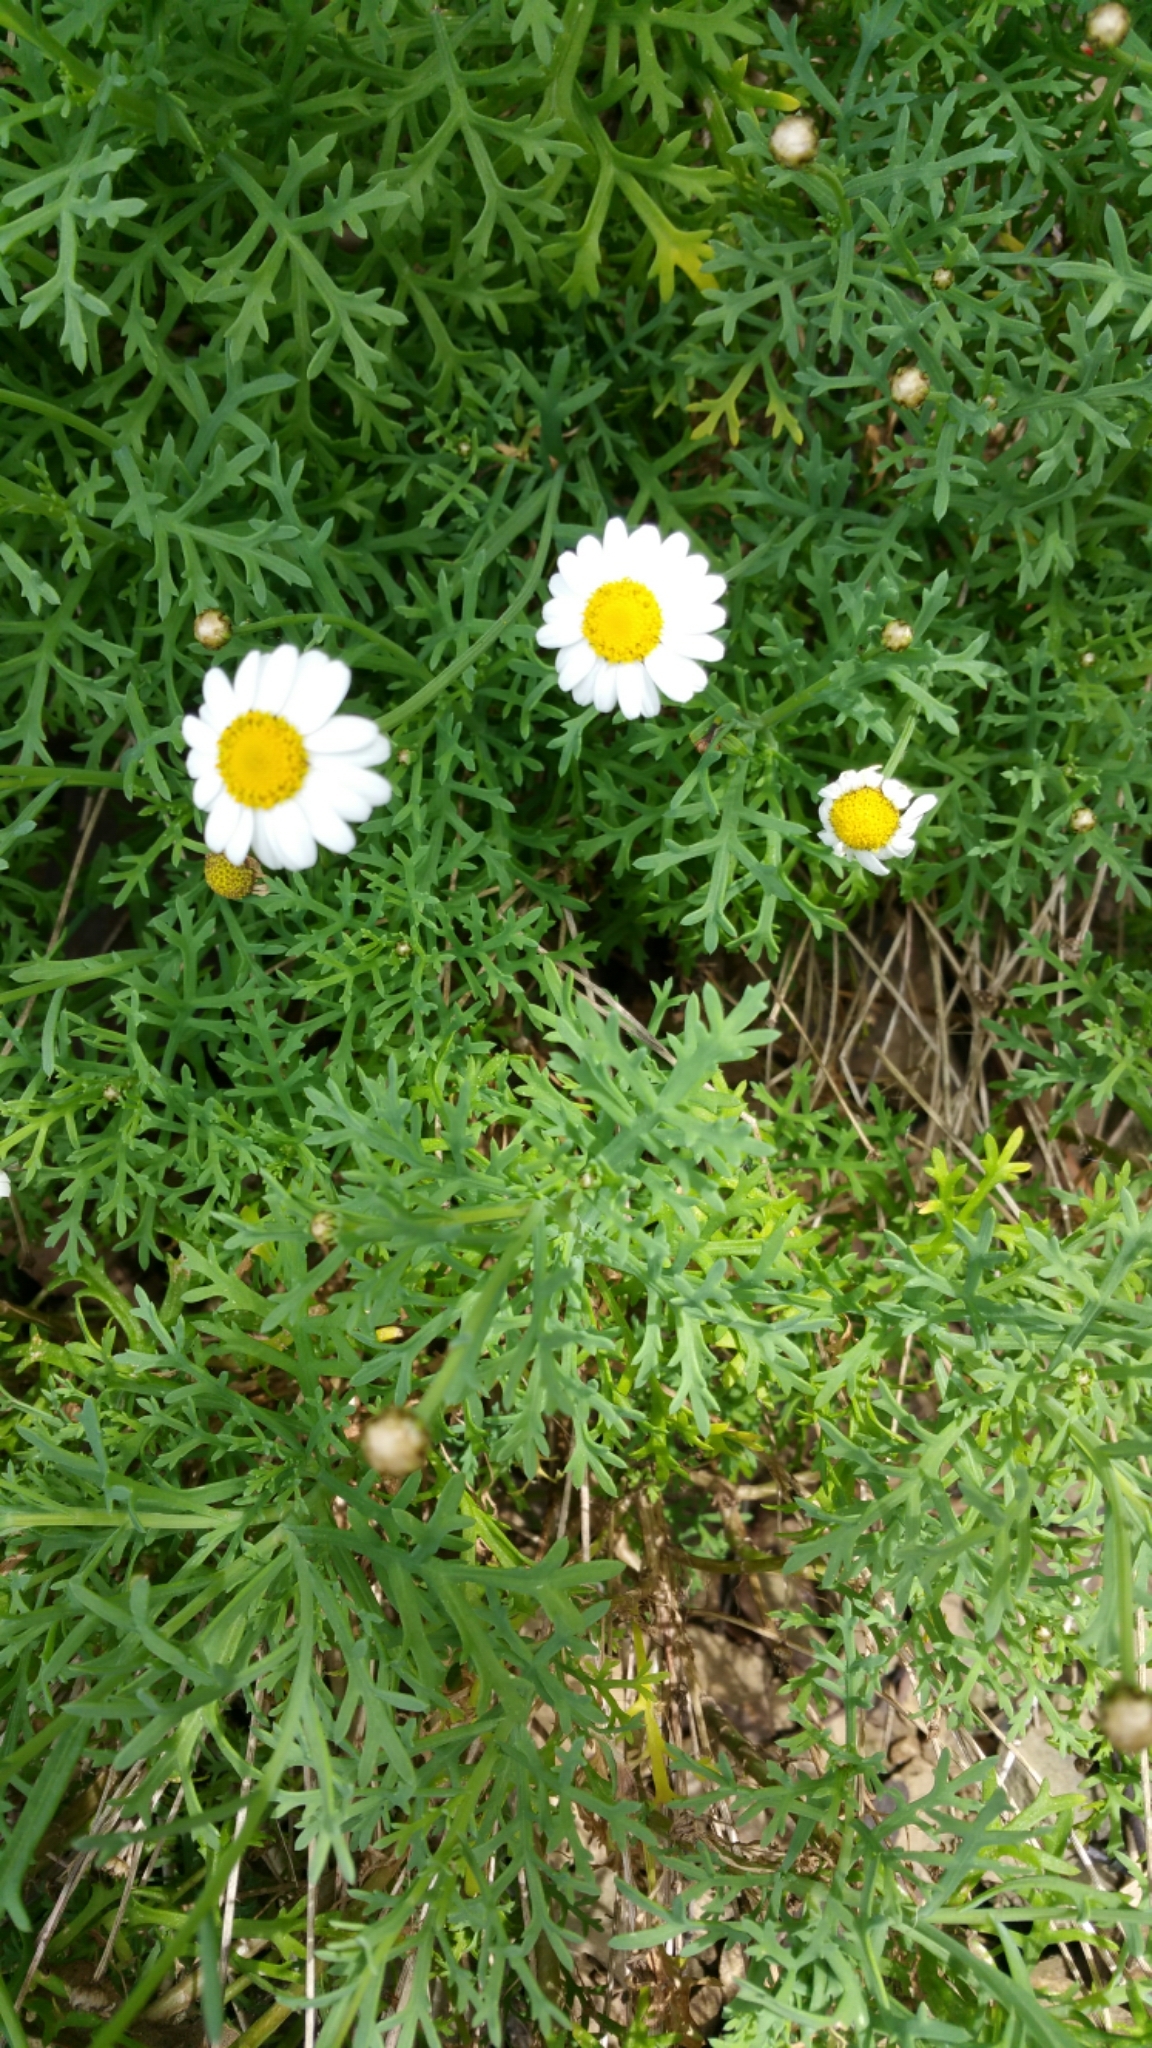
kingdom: Plantae
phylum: Tracheophyta
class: Magnoliopsida
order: Asterales
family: Asteraceae
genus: Argyranthemum
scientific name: Argyranthemum foeniculaceum
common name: Canary island marguerite
